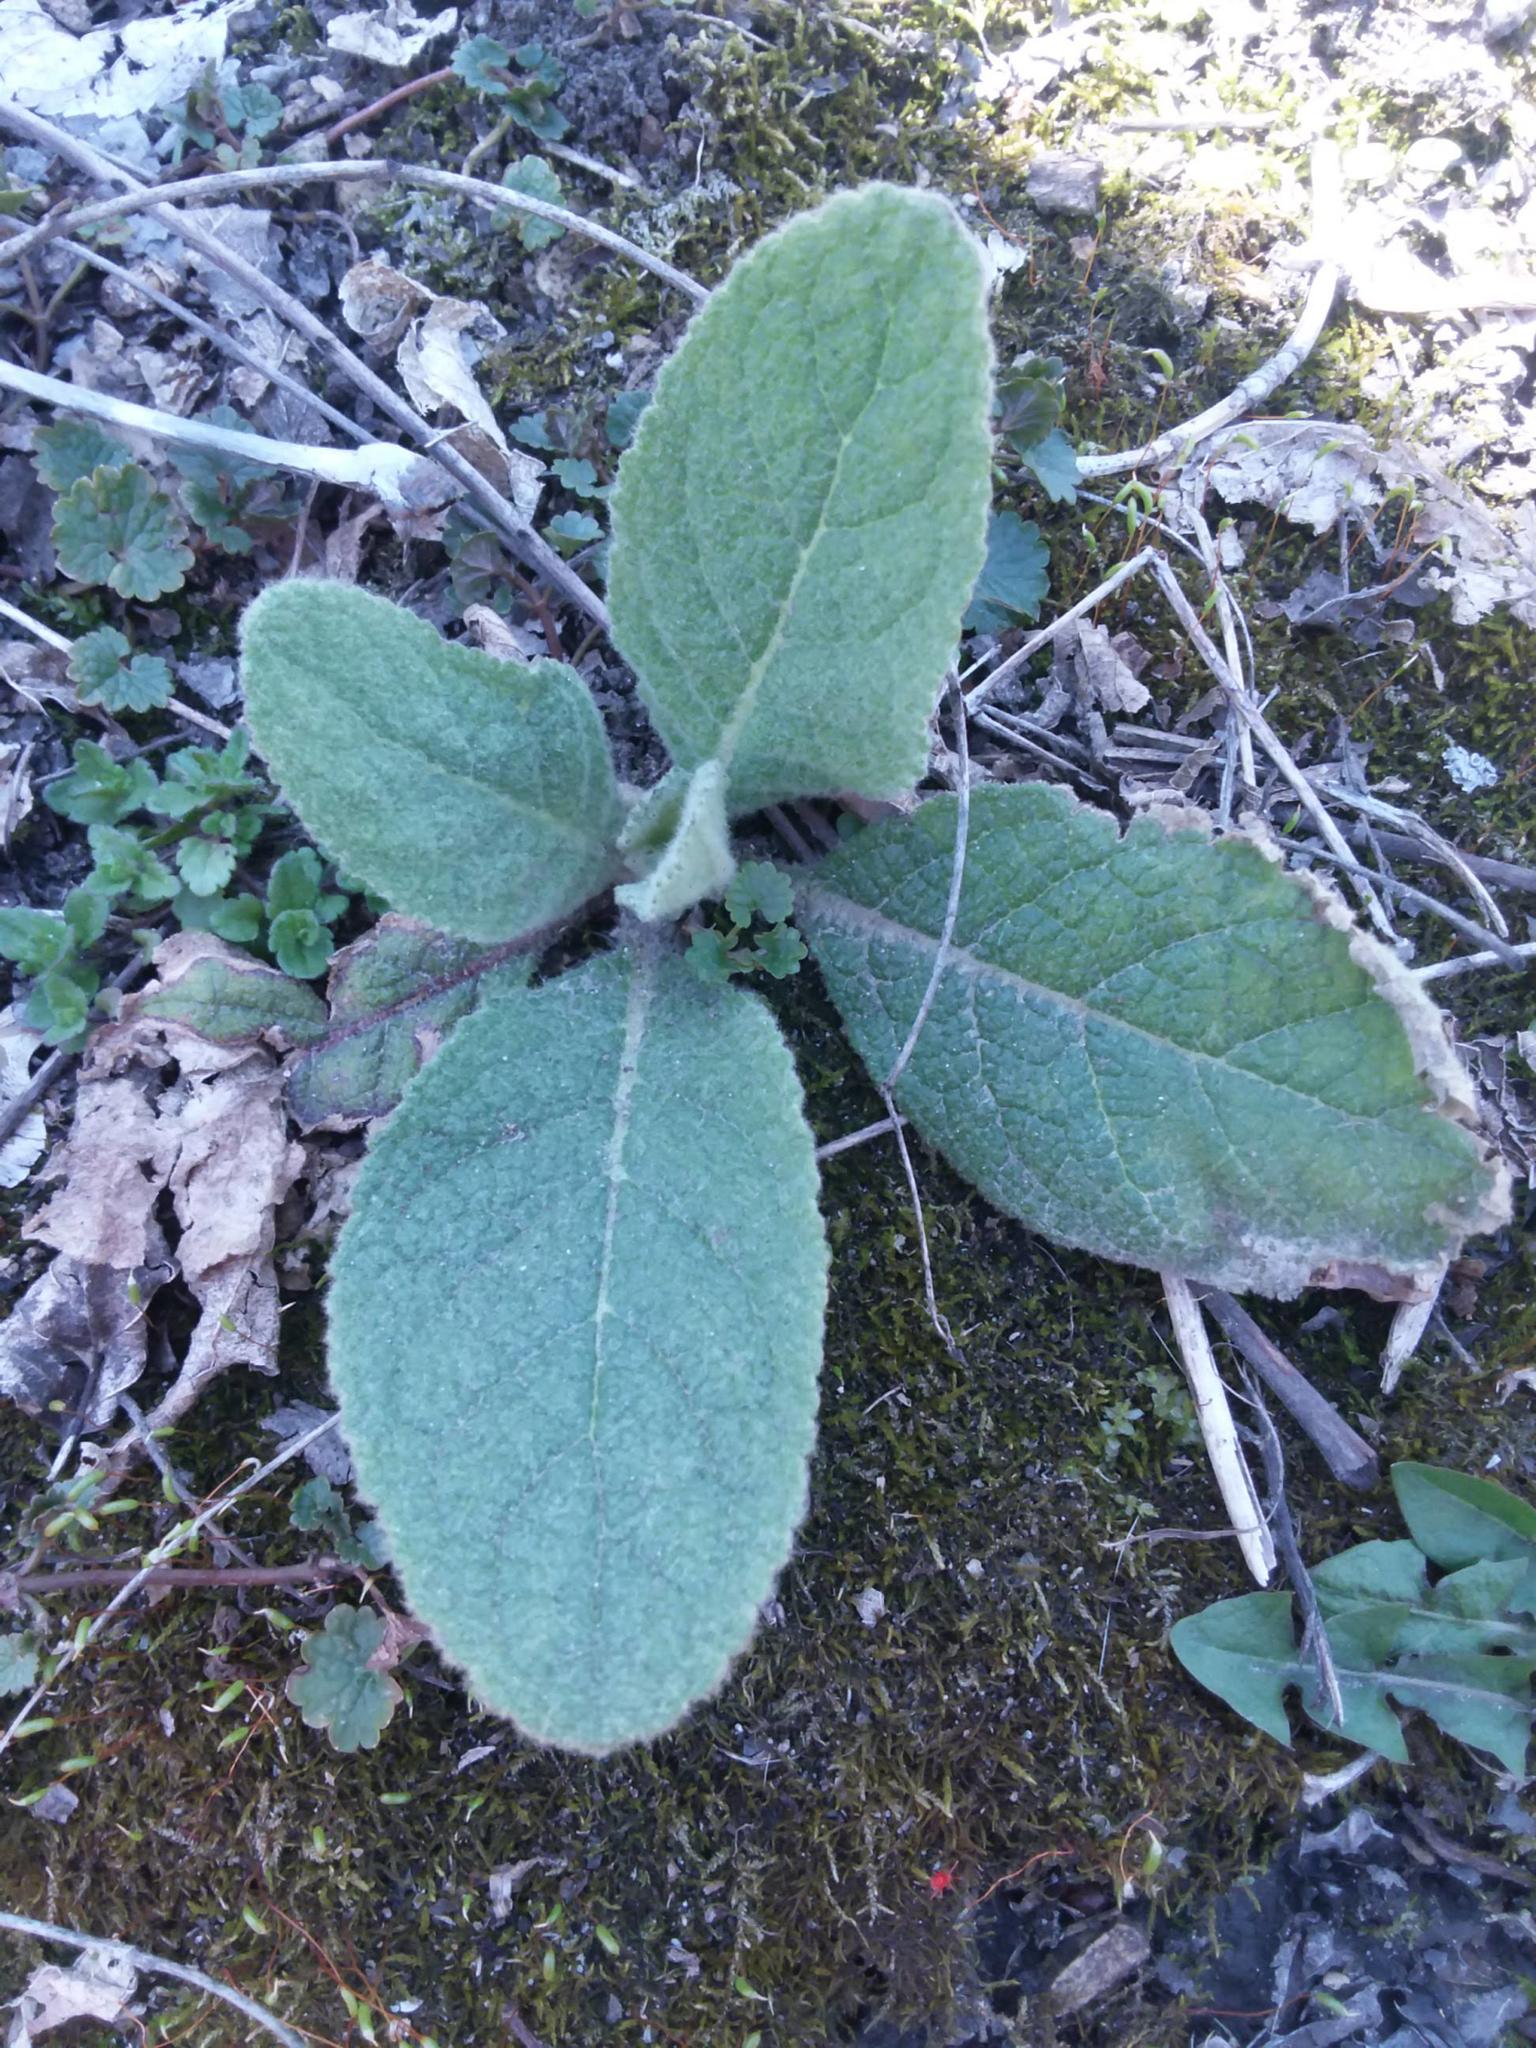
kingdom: Plantae
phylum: Tracheophyta
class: Magnoliopsida
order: Lamiales
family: Scrophulariaceae
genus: Verbascum
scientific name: Verbascum thapsus
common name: Common mullein
